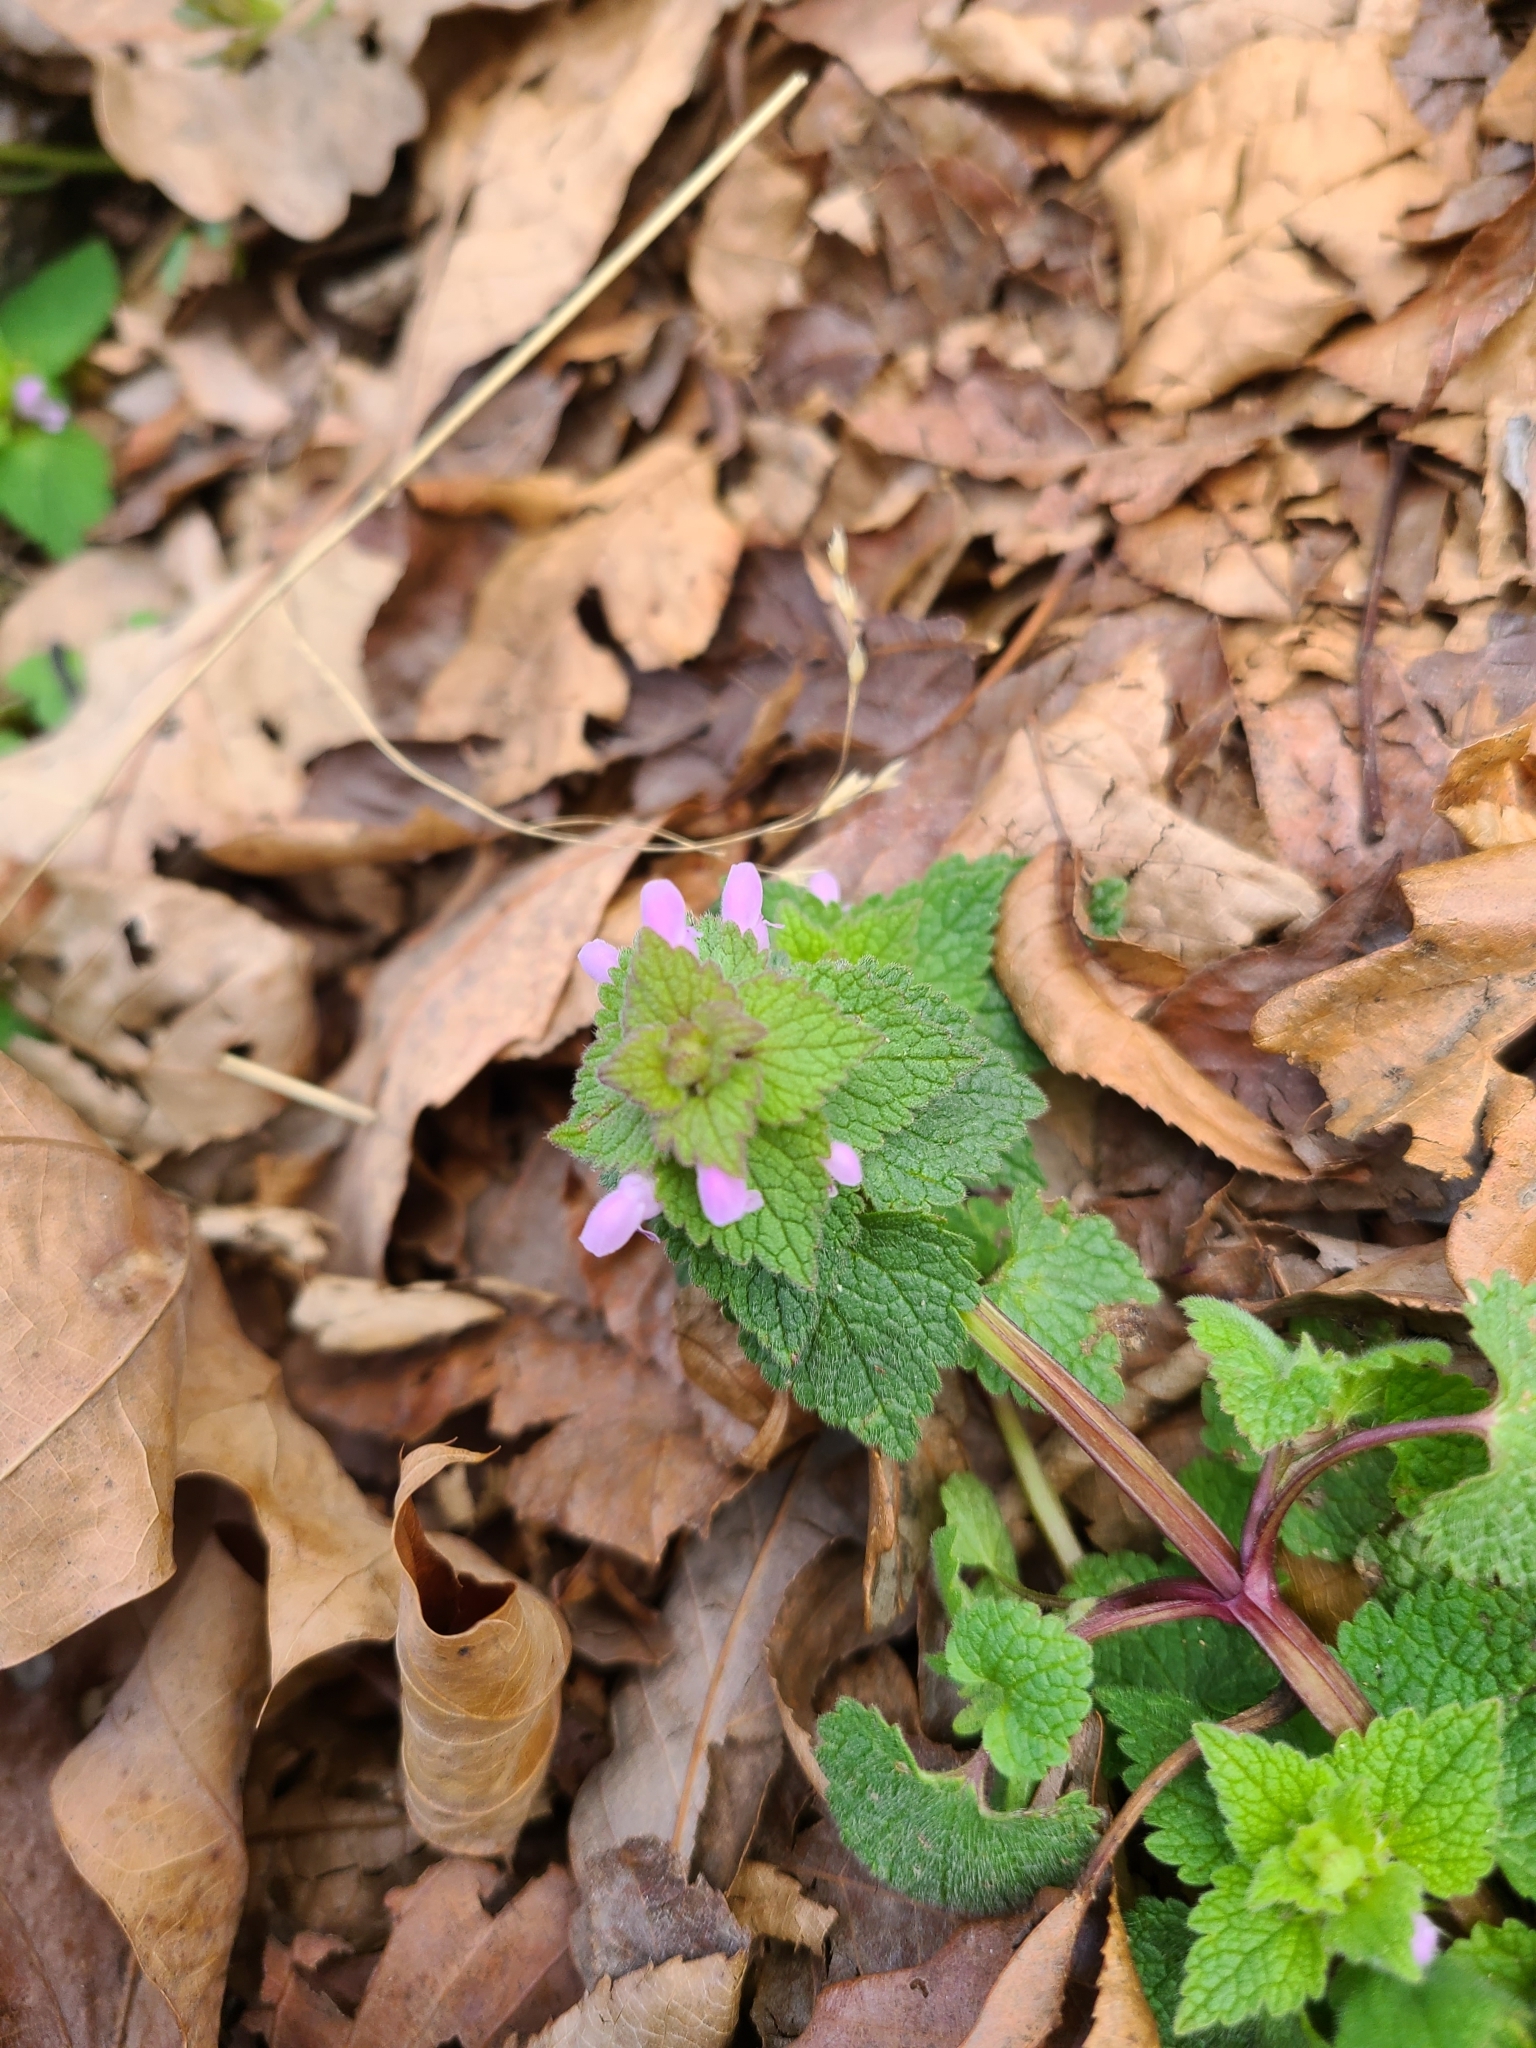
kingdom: Plantae
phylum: Tracheophyta
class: Magnoliopsida
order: Lamiales
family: Lamiaceae
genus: Lamium
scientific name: Lamium purpureum
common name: Red dead-nettle
